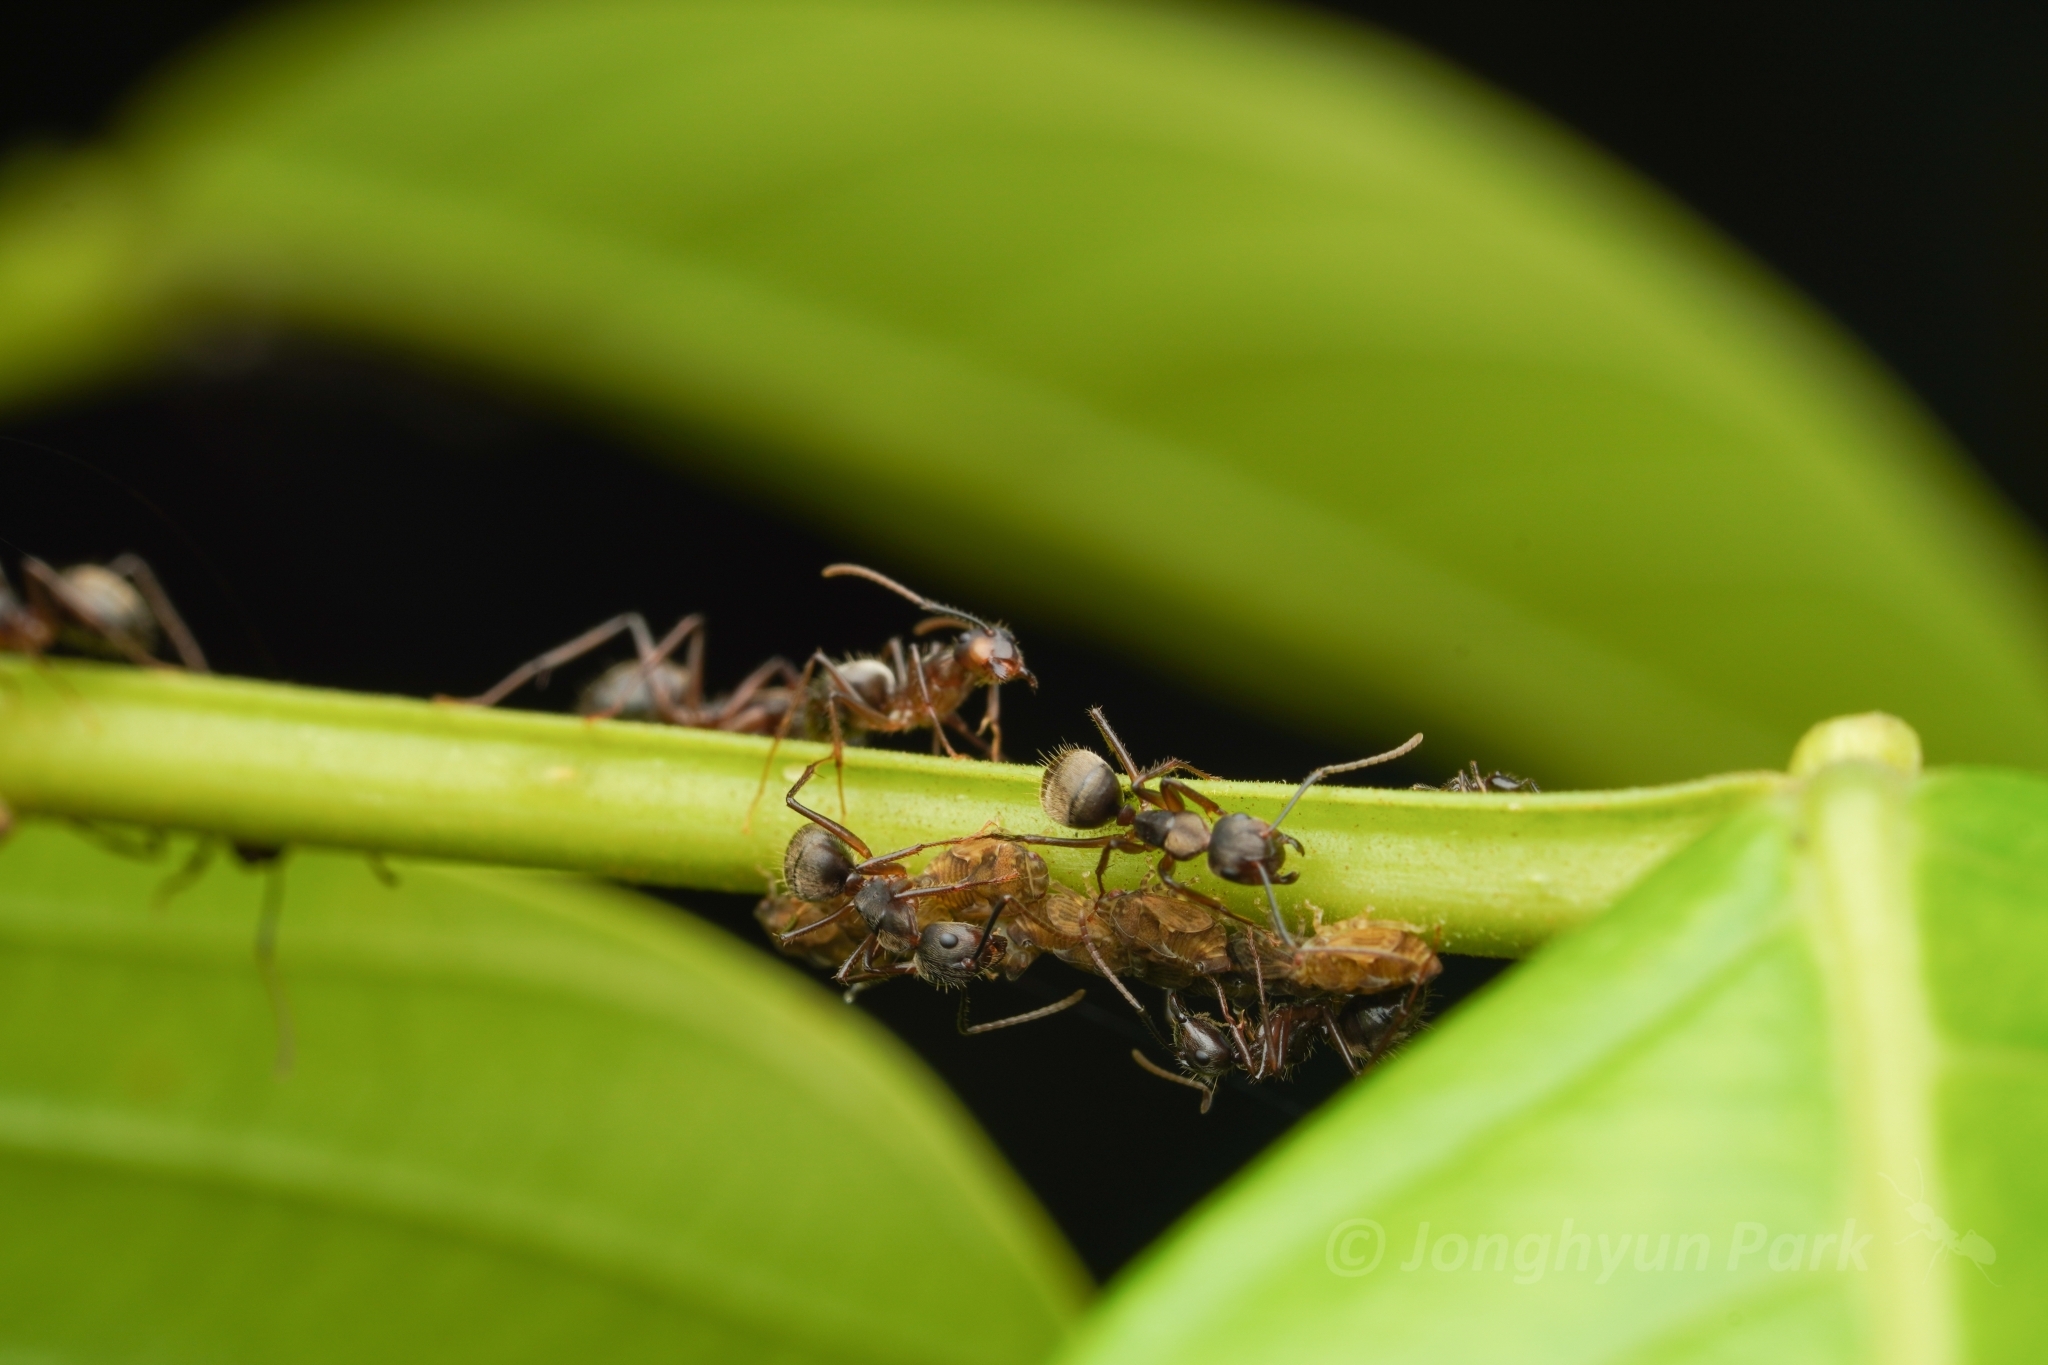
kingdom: Animalia
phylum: Arthropoda
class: Insecta
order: Hymenoptera
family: Formicidae
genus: Camponotus
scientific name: Camponotus femoratus
